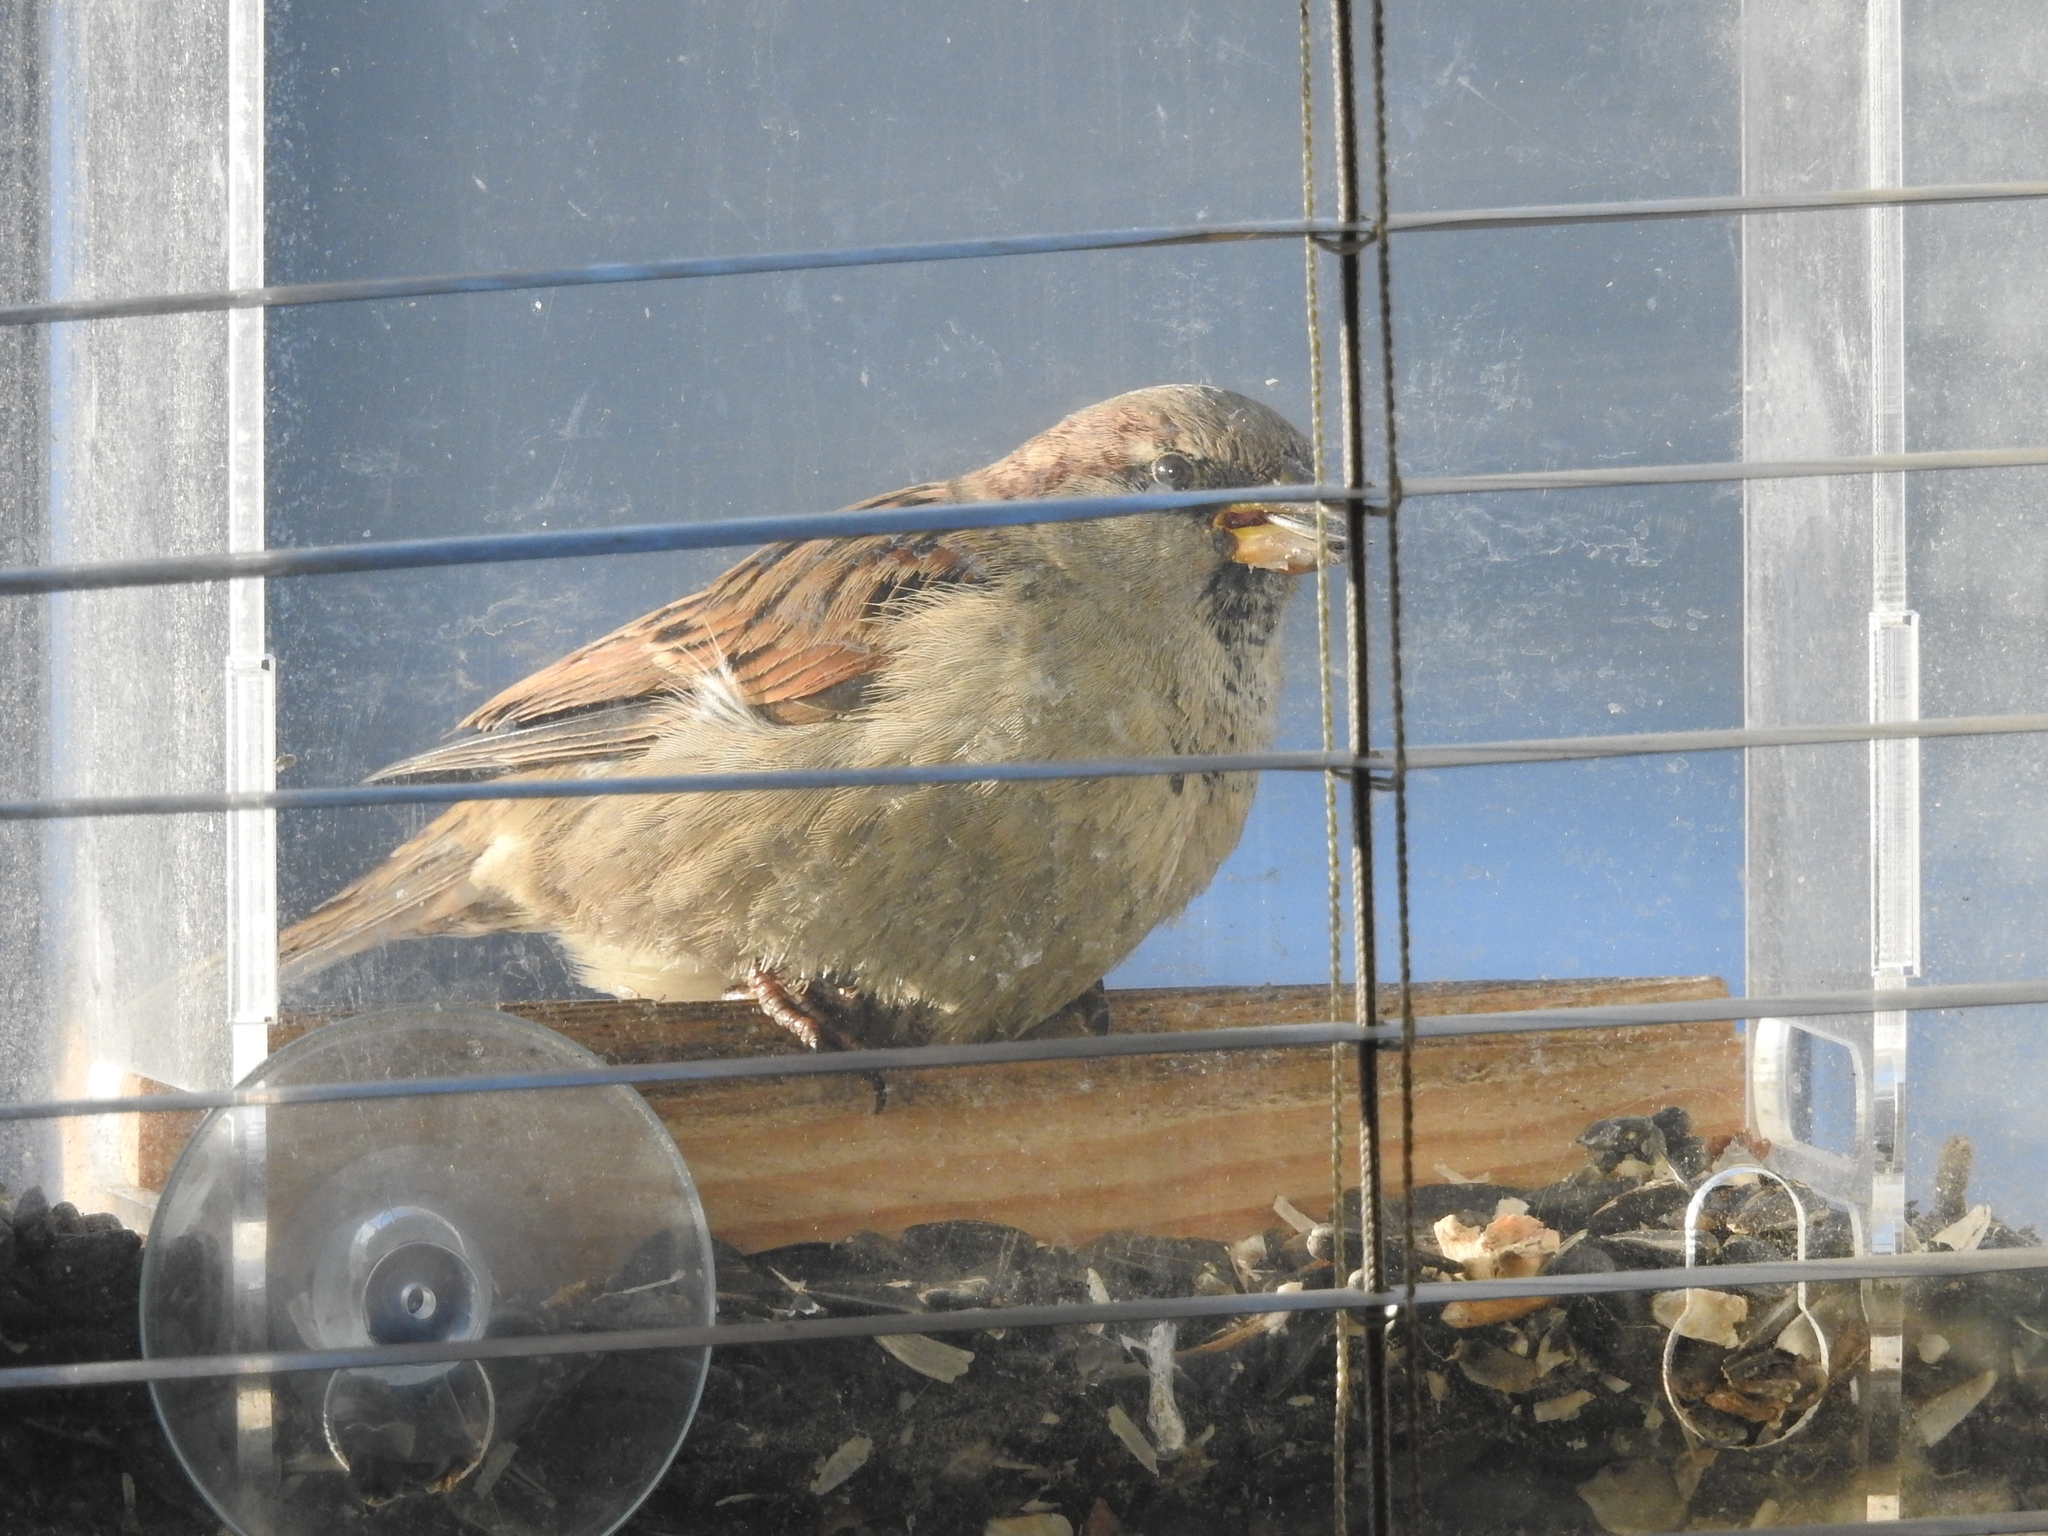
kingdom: Animalia
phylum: Chordata
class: Aves
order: Passeriformes
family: Passeridae
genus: Passer
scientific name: Passer domesticus
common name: House sparrow
